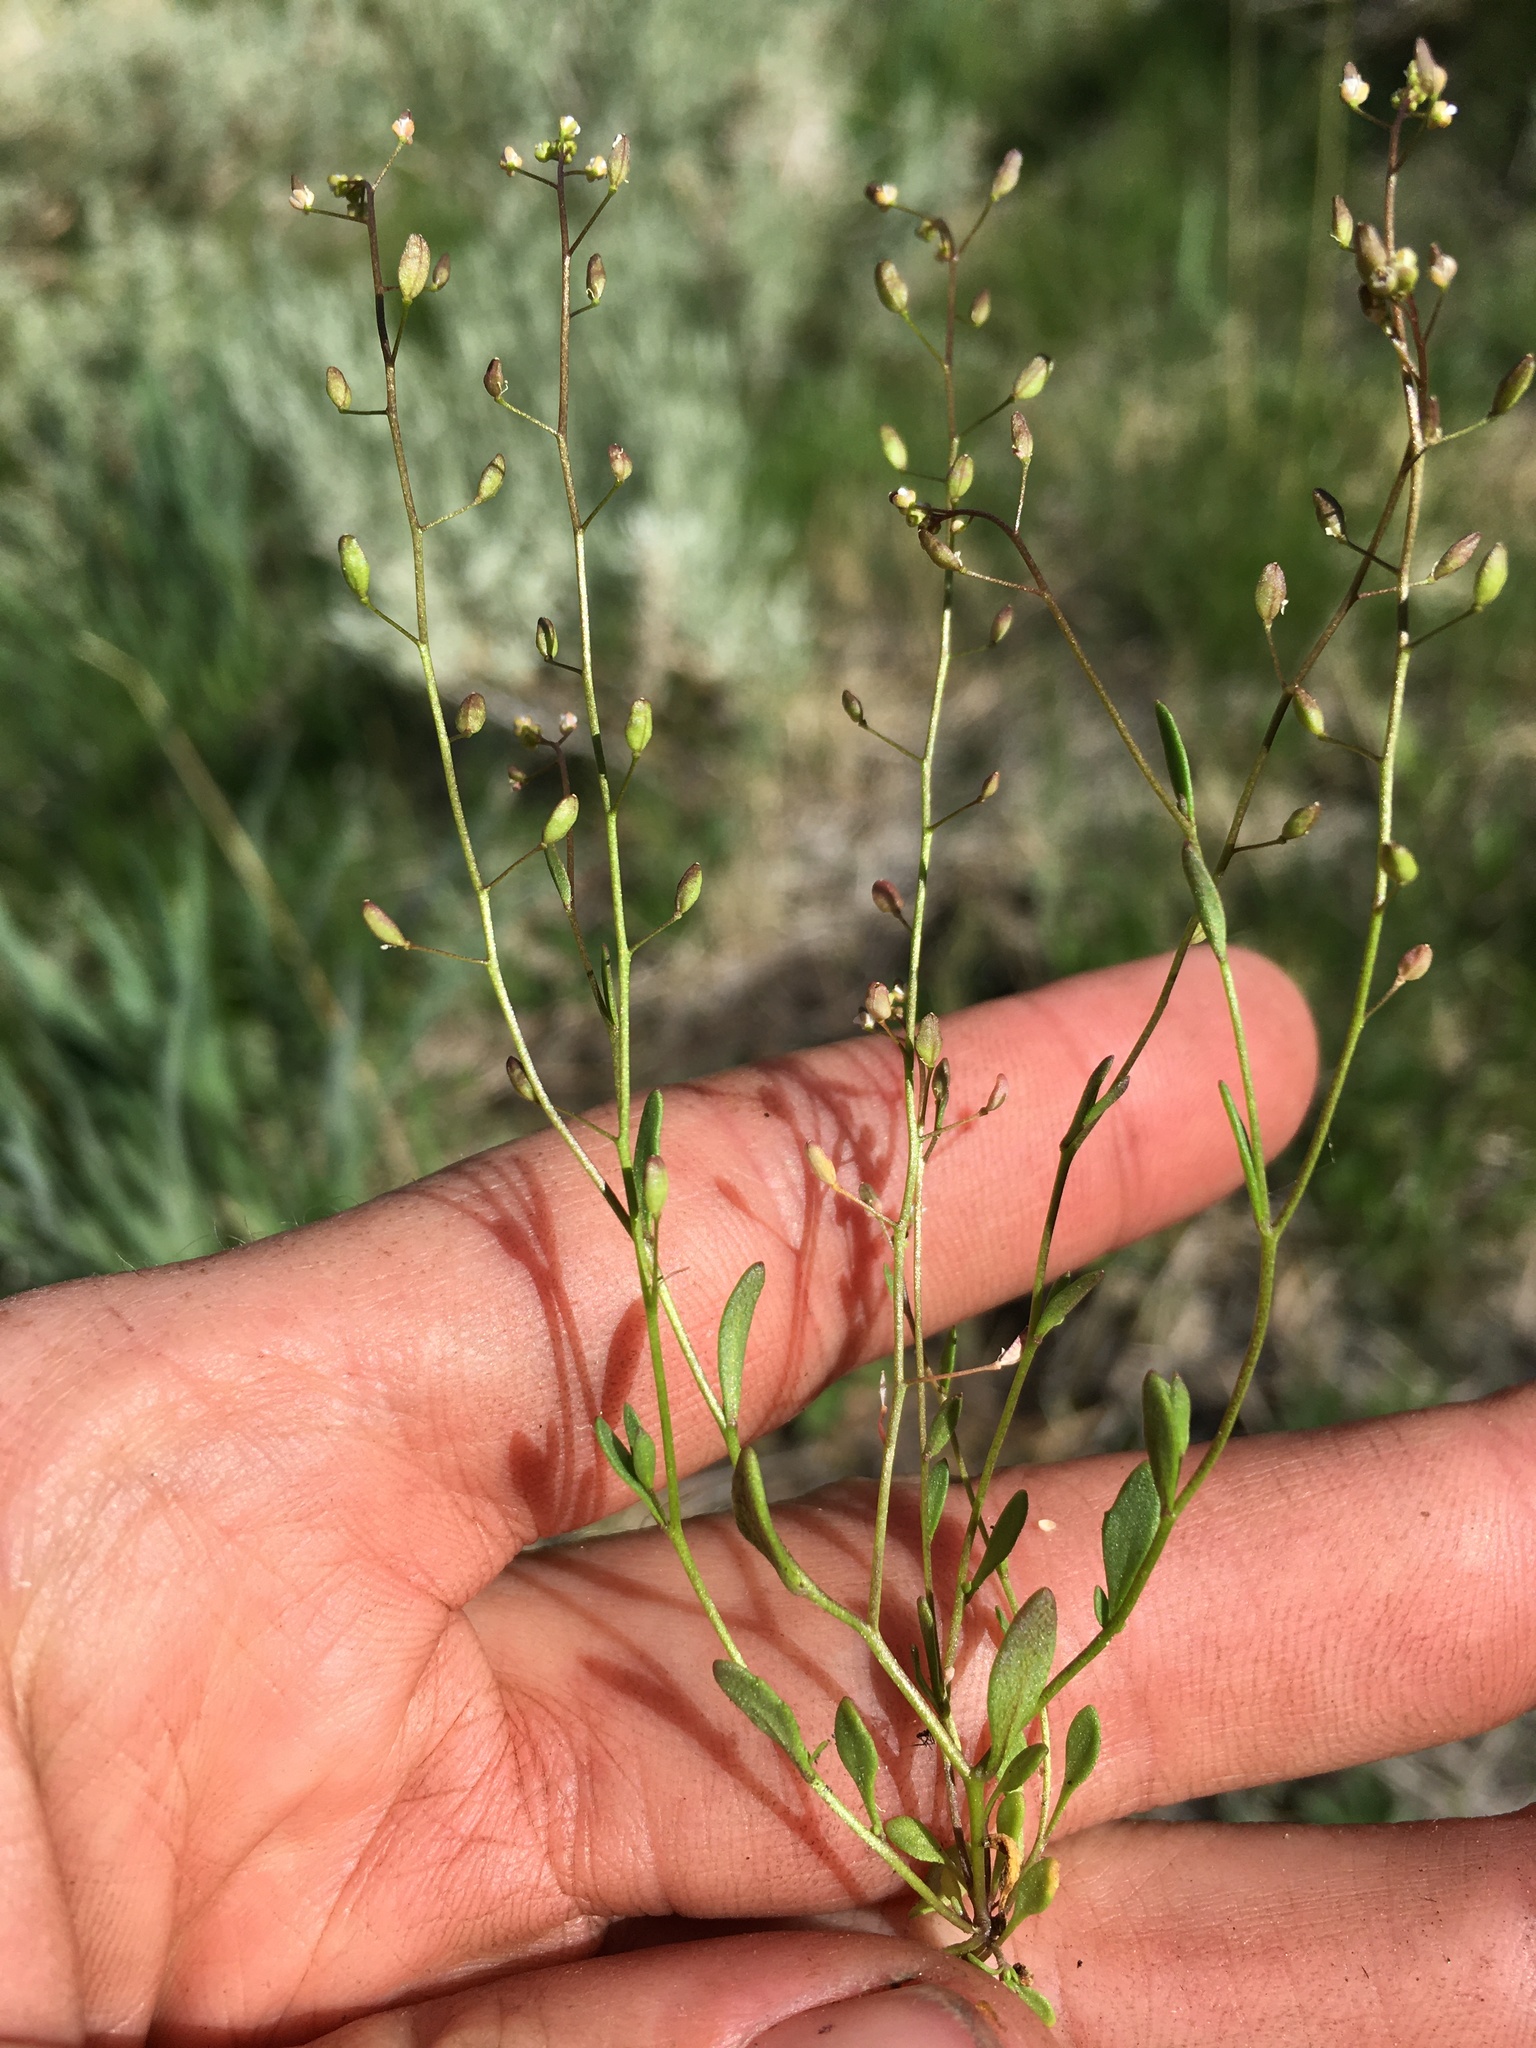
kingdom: Plantae
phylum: Tracheophyta
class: Magnoliopsida
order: Brassicales
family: Brassicaceae
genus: Hornungia
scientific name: Hornungia procumbens
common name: Oval purse
